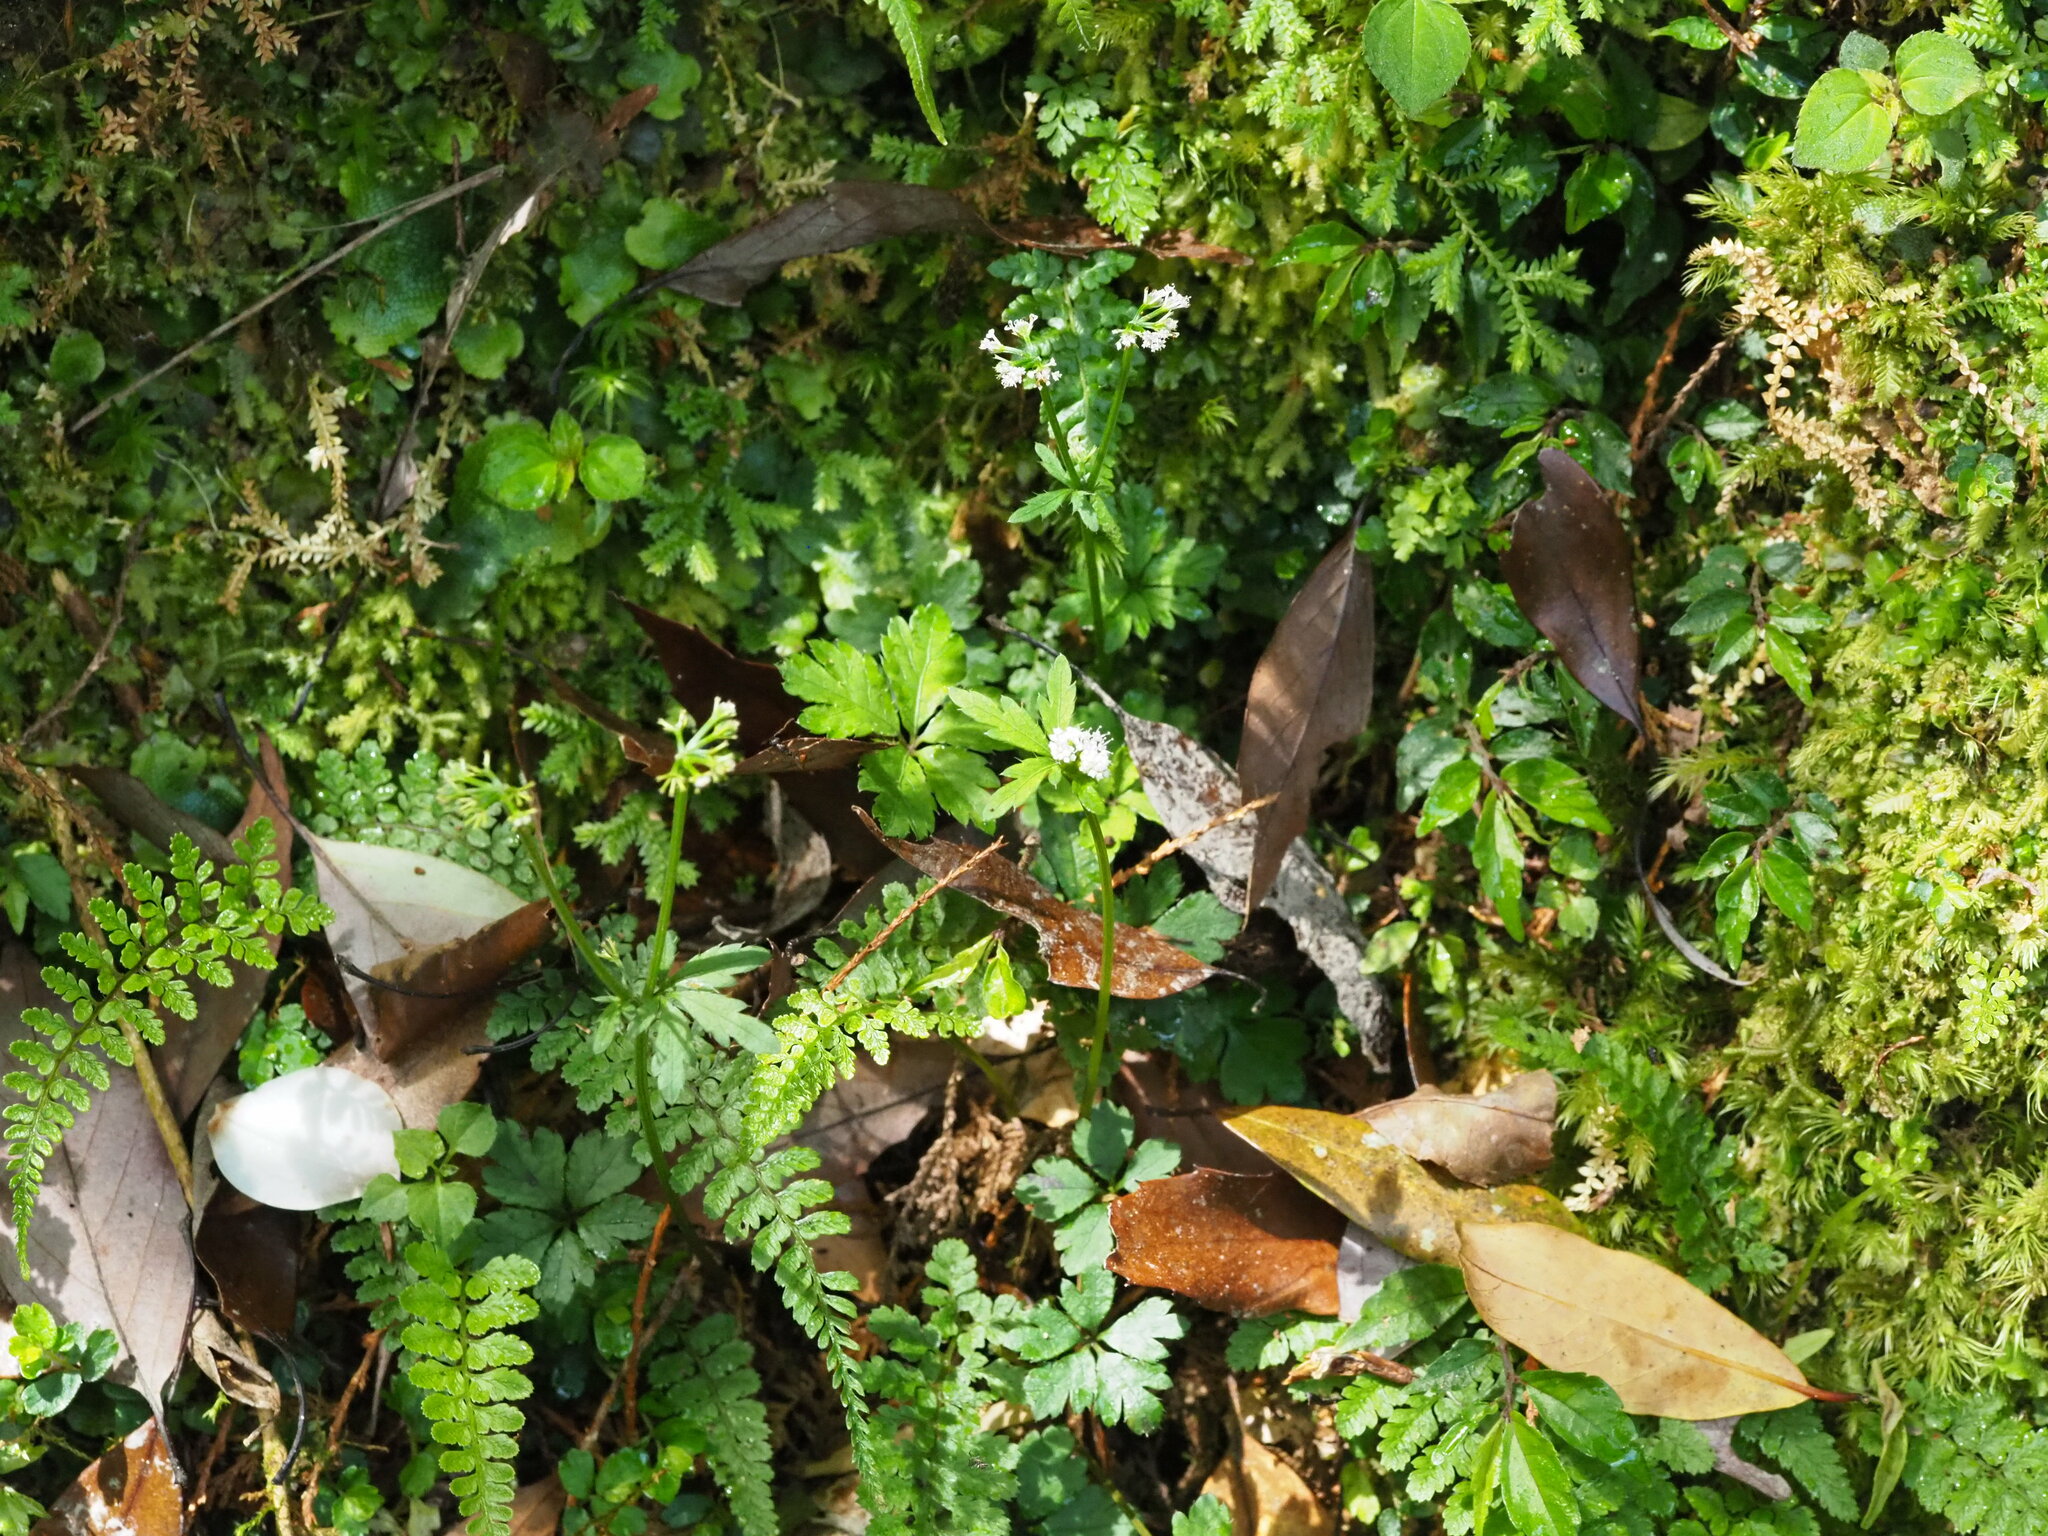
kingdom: Plantae
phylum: Tracheophyta
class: Magnoliopsida
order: Apiales
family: Apiaceae
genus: Sanicula
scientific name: Sanicula petagnioides
